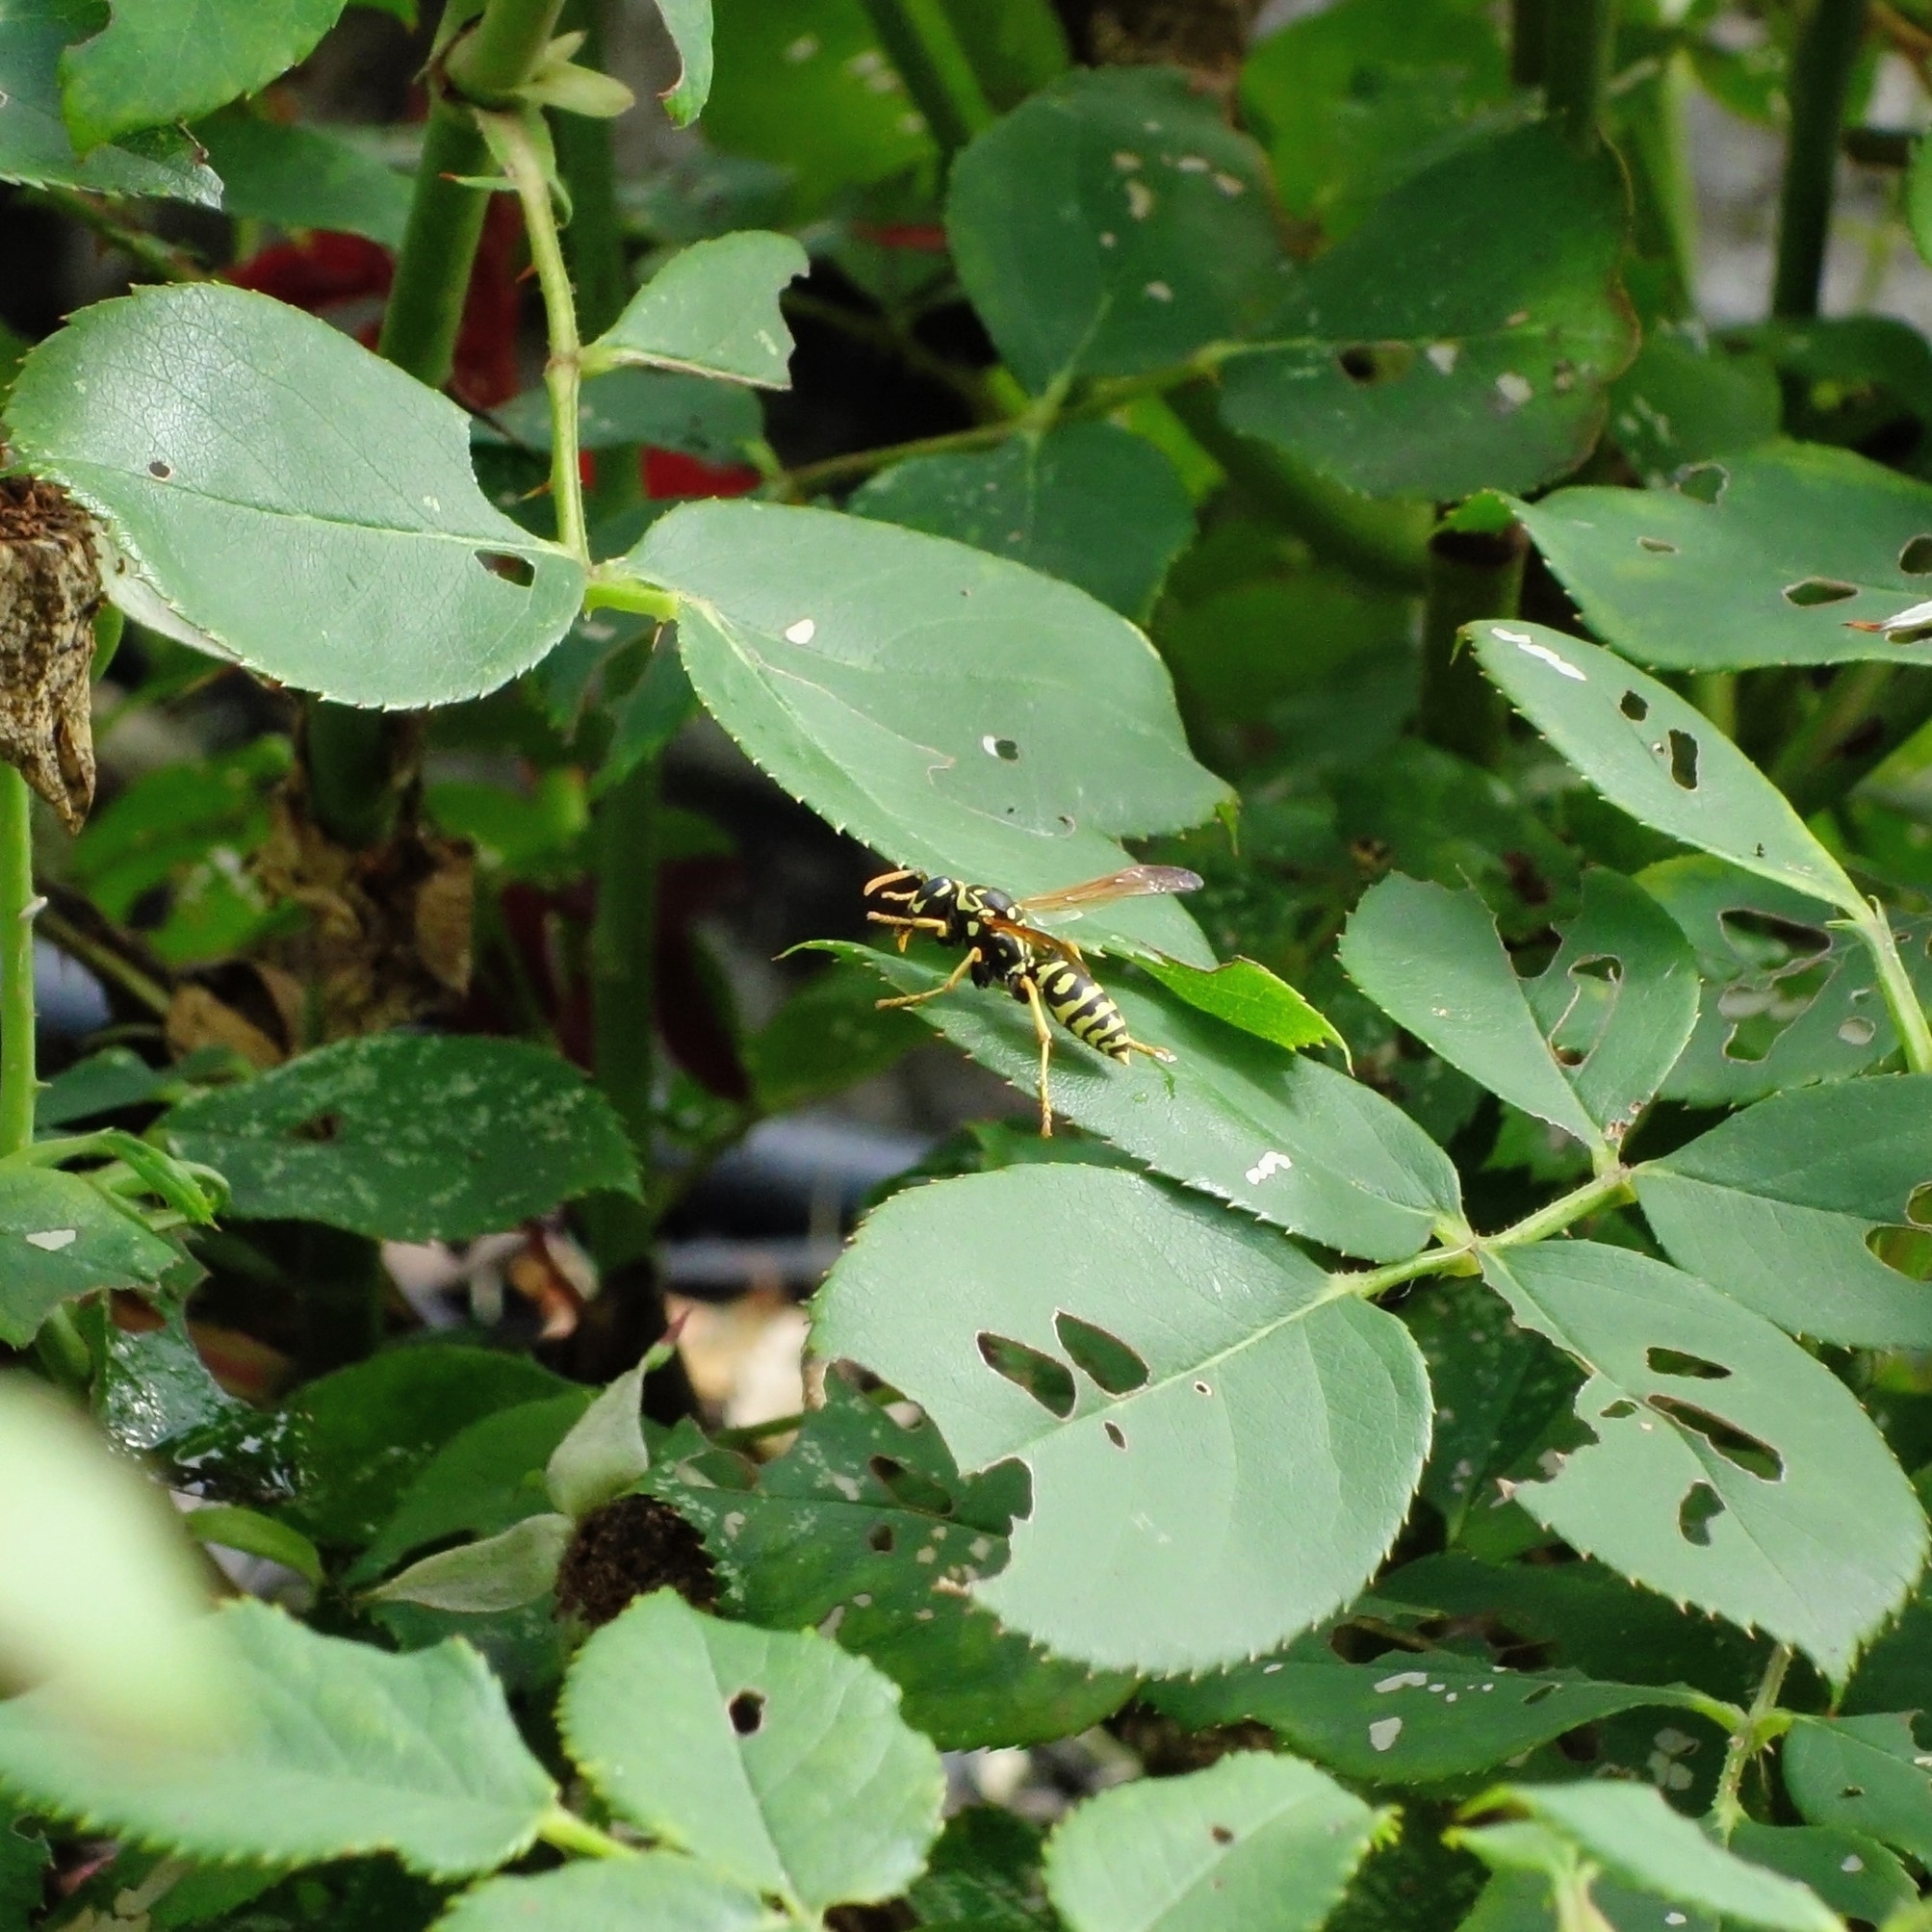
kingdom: Animalia
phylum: Arthropoda
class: Insecta
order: Hymenoptera
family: Eumenidae
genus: Polistes
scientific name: Polistes dominula
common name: Paper wasp
